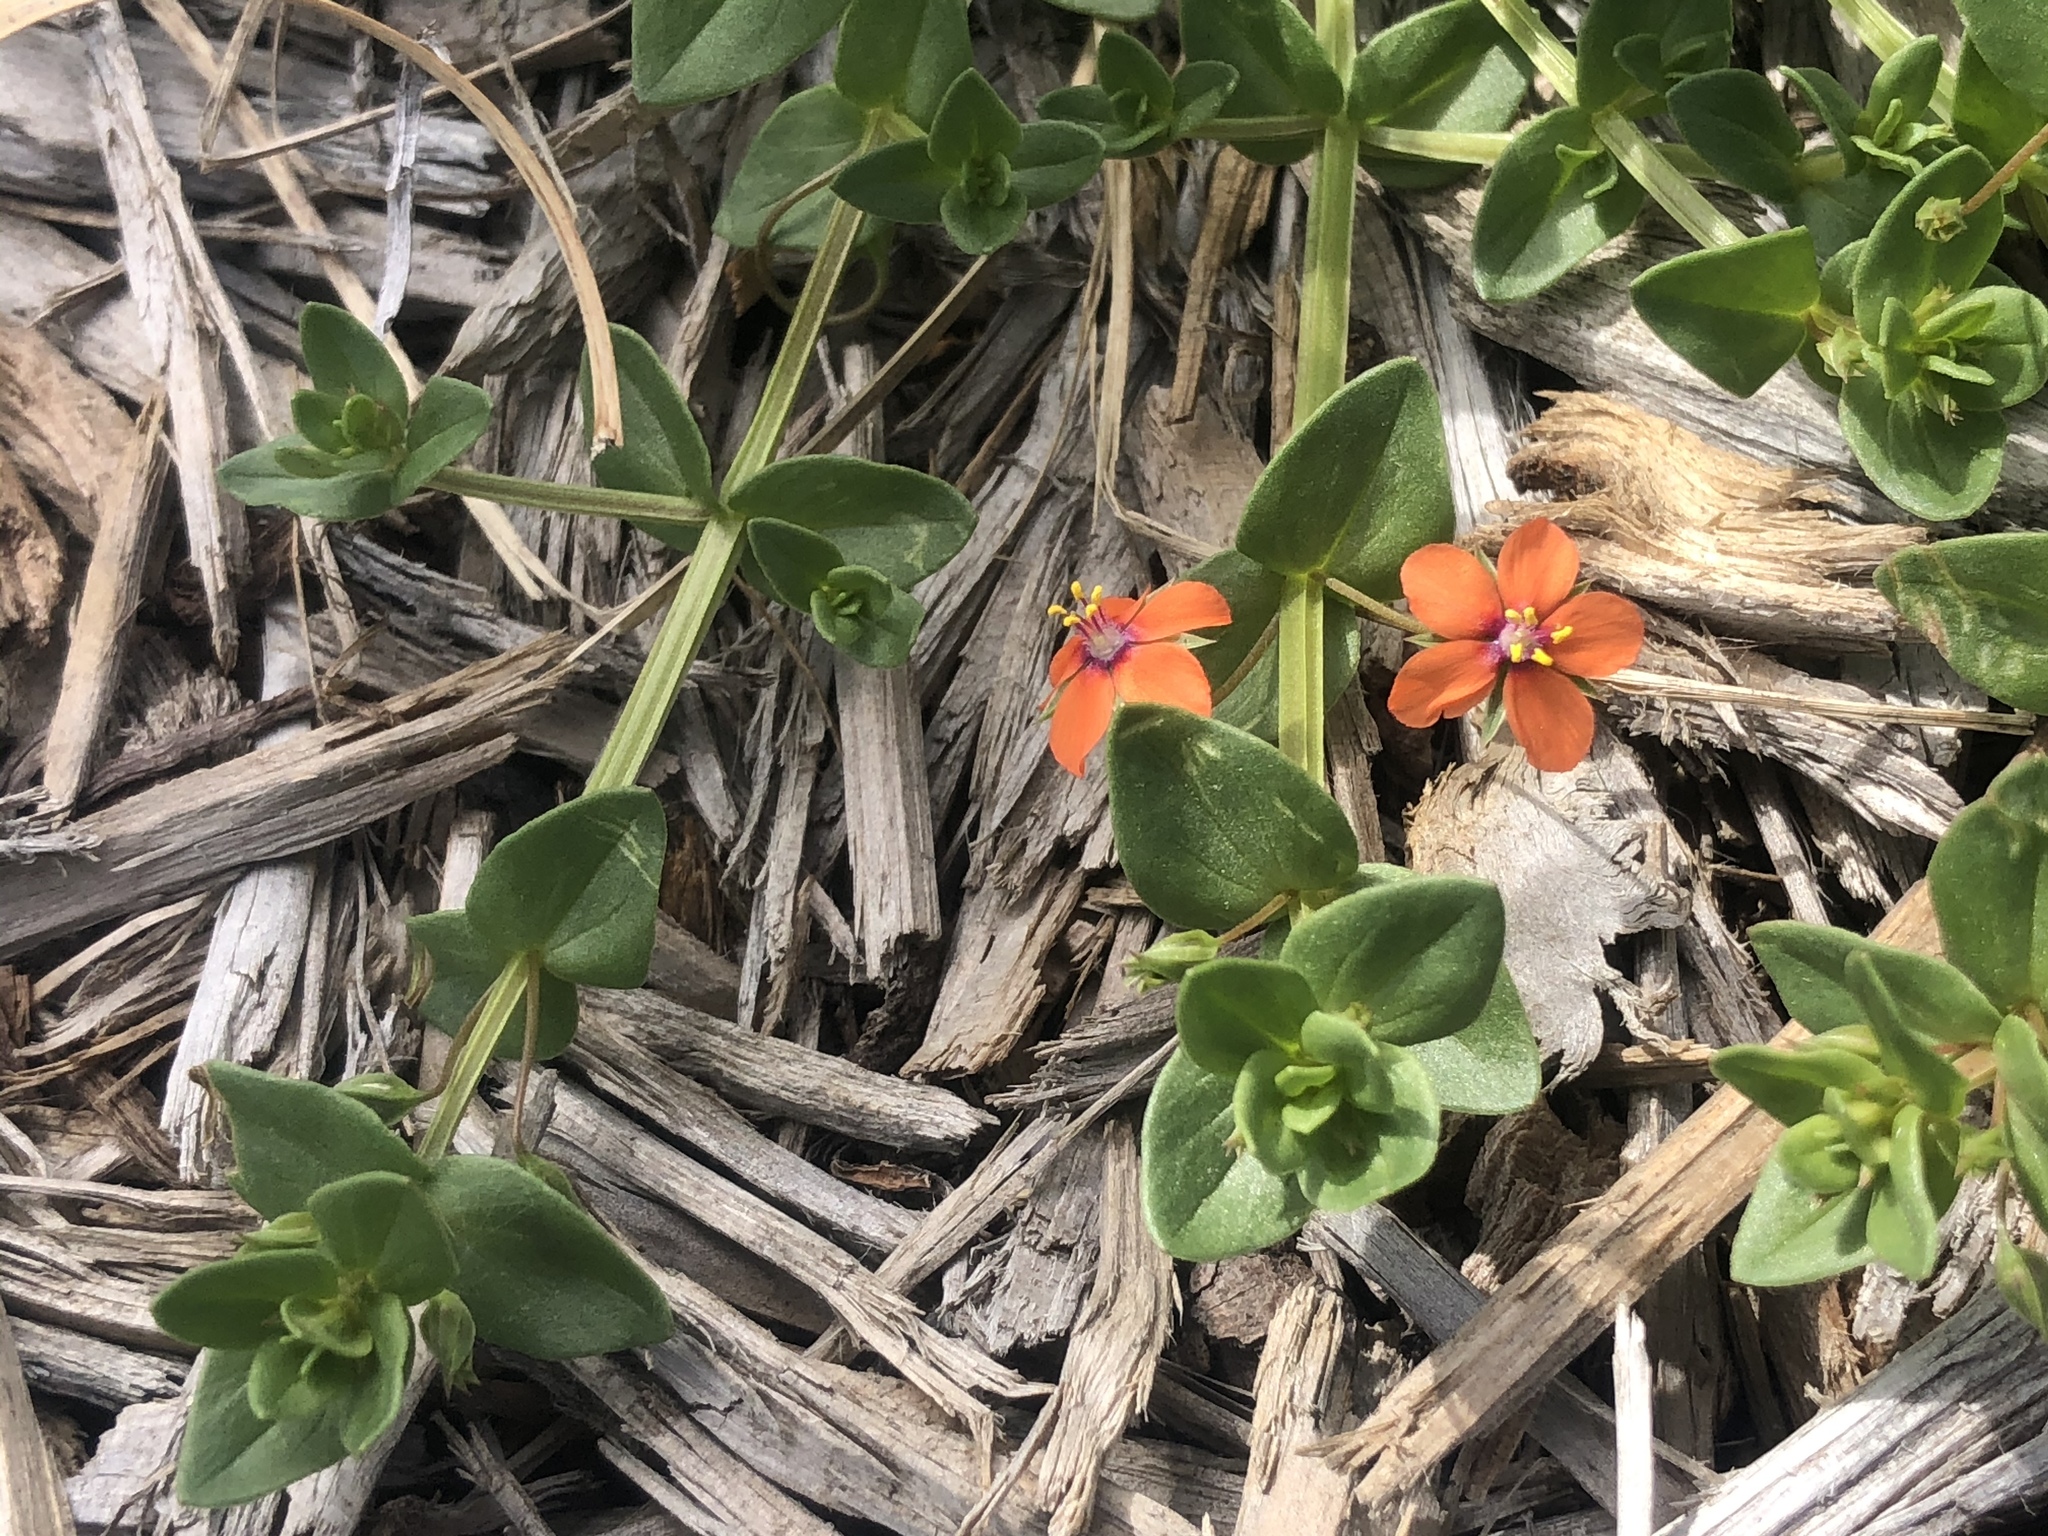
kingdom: Plantae
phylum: Tracheophyta
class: Magnoliopsida
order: Ericales
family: Primulaceae
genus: Lysimachia
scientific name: Lysimachia arvensis
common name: Scarlet pimpernel
